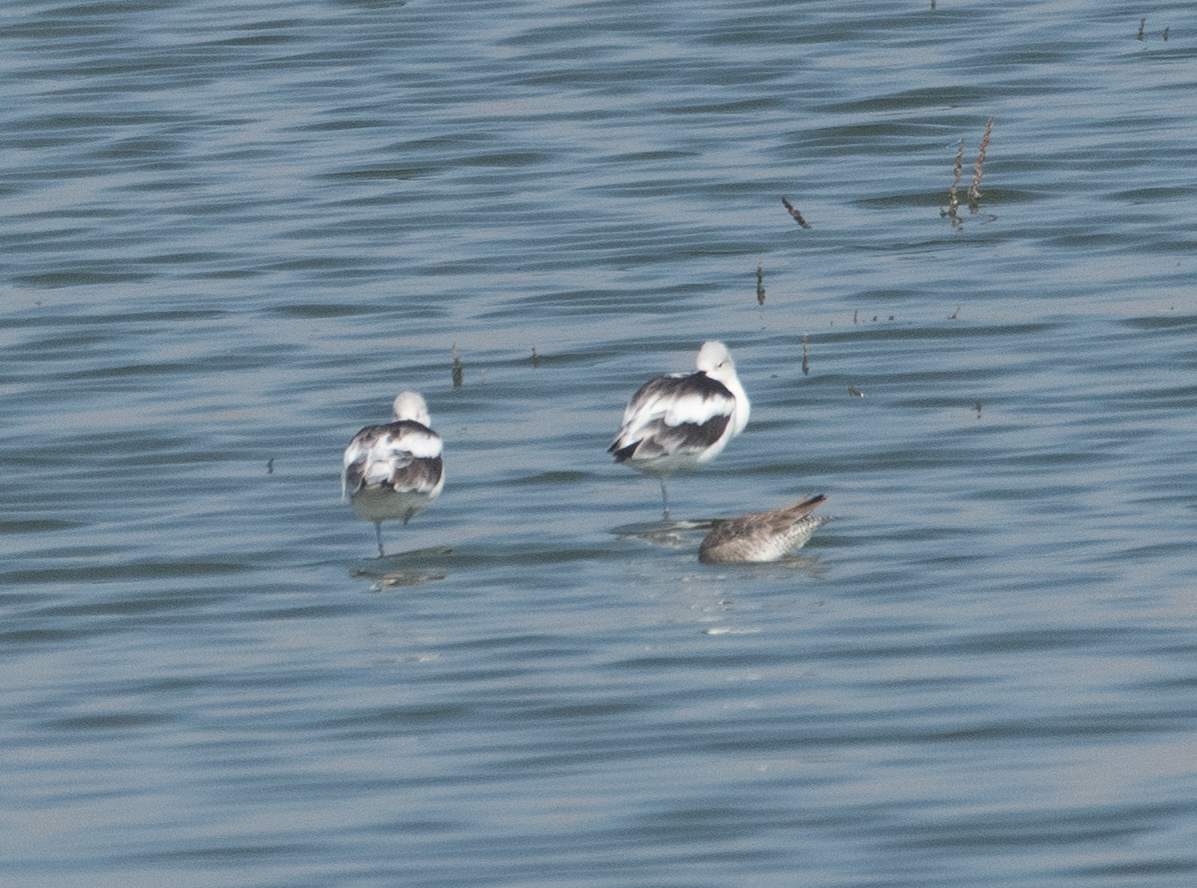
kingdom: Animalia
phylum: Chordata
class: Aves
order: Charadriiformes
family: Recurvirostridae
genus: Recurvirostra
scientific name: Recurvirostra americana
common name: American avocet
